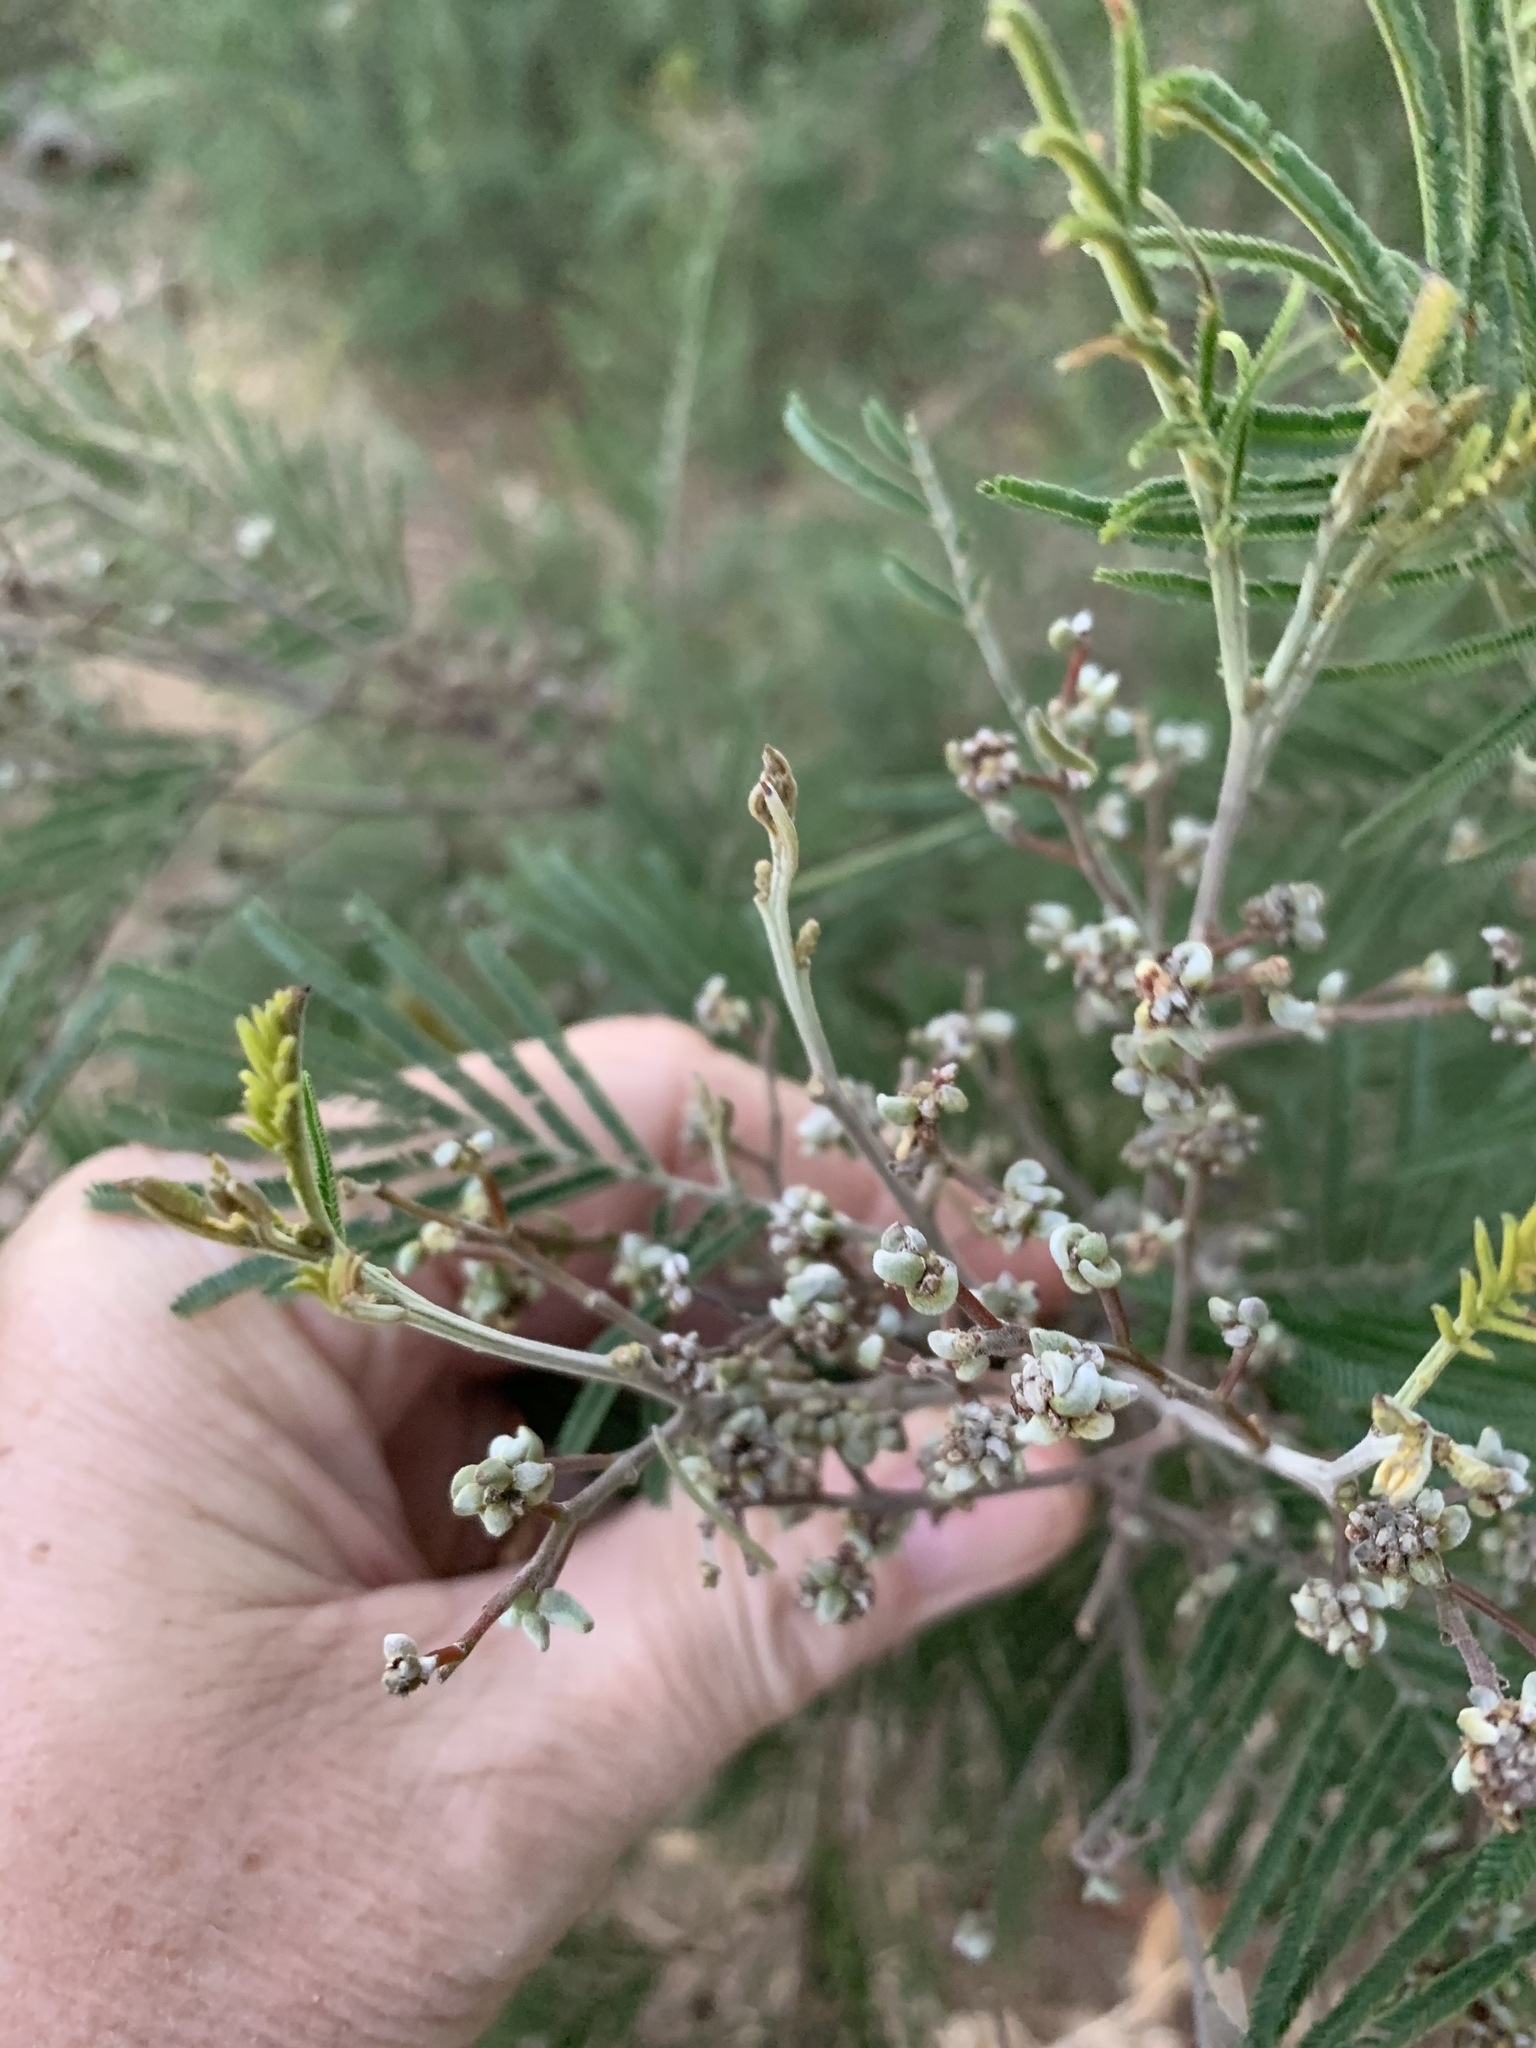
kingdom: Animalia
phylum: Arthropoda
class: Insecta
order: Diptera
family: Cecidomyiidae
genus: Dasineura
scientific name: Dasineura rubiformis
